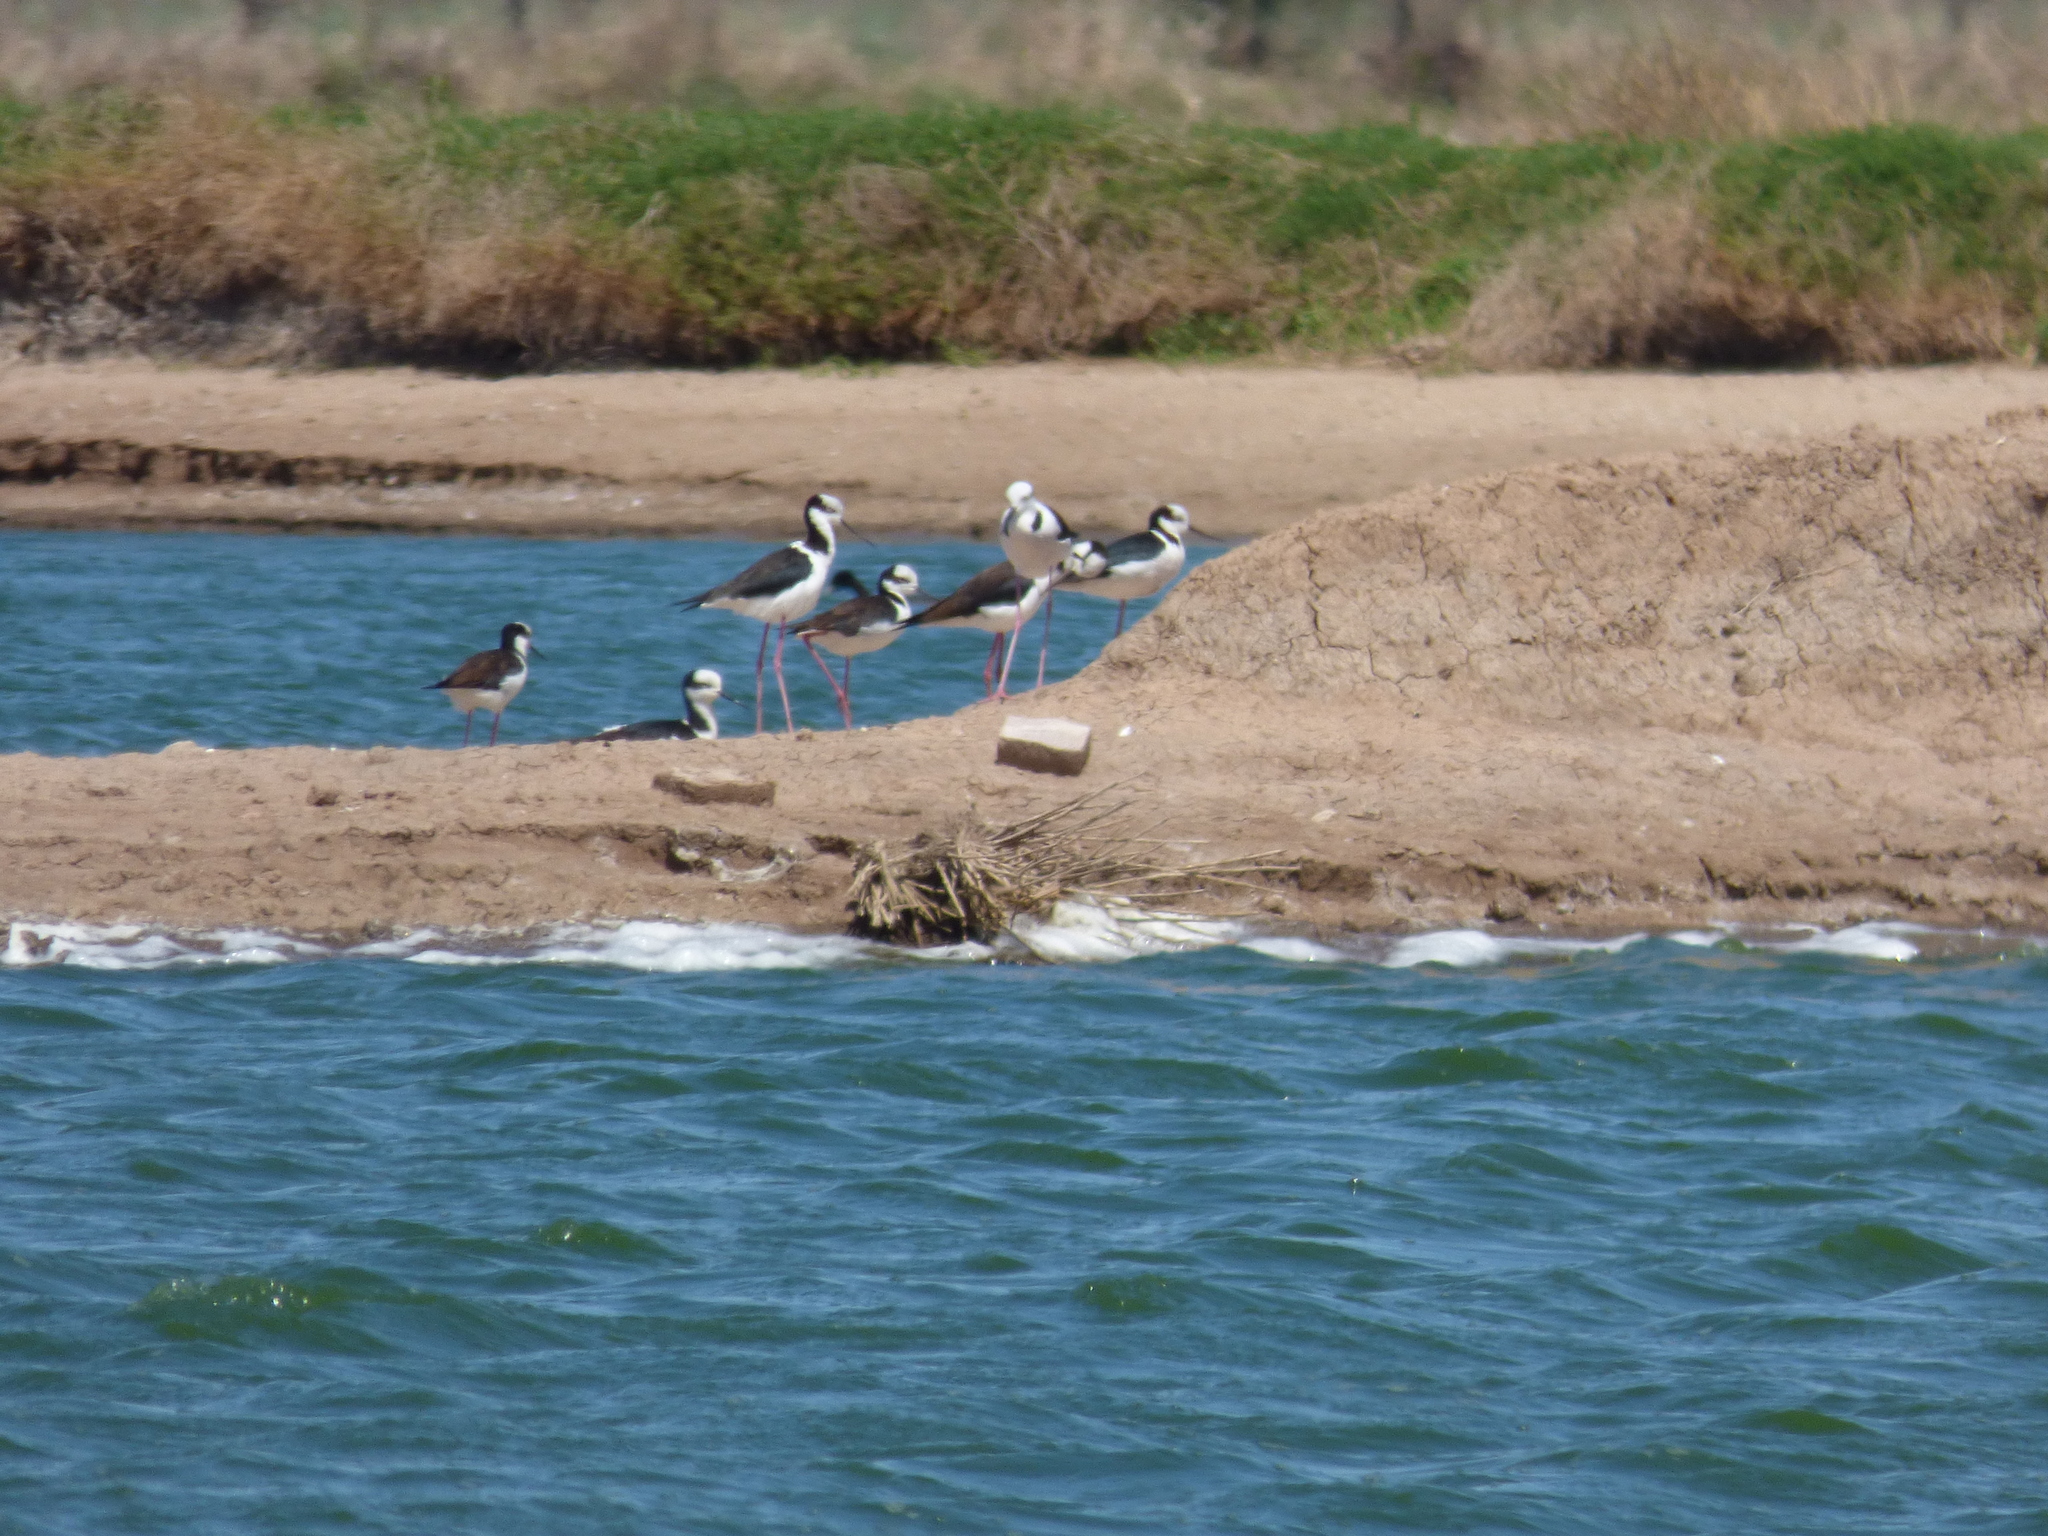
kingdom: Animalia
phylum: Chordata
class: Aves
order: Charadriiformes
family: Recurvirostridae
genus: Himantopus
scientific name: Himantopus mexicanus
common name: Black-necked stilt
